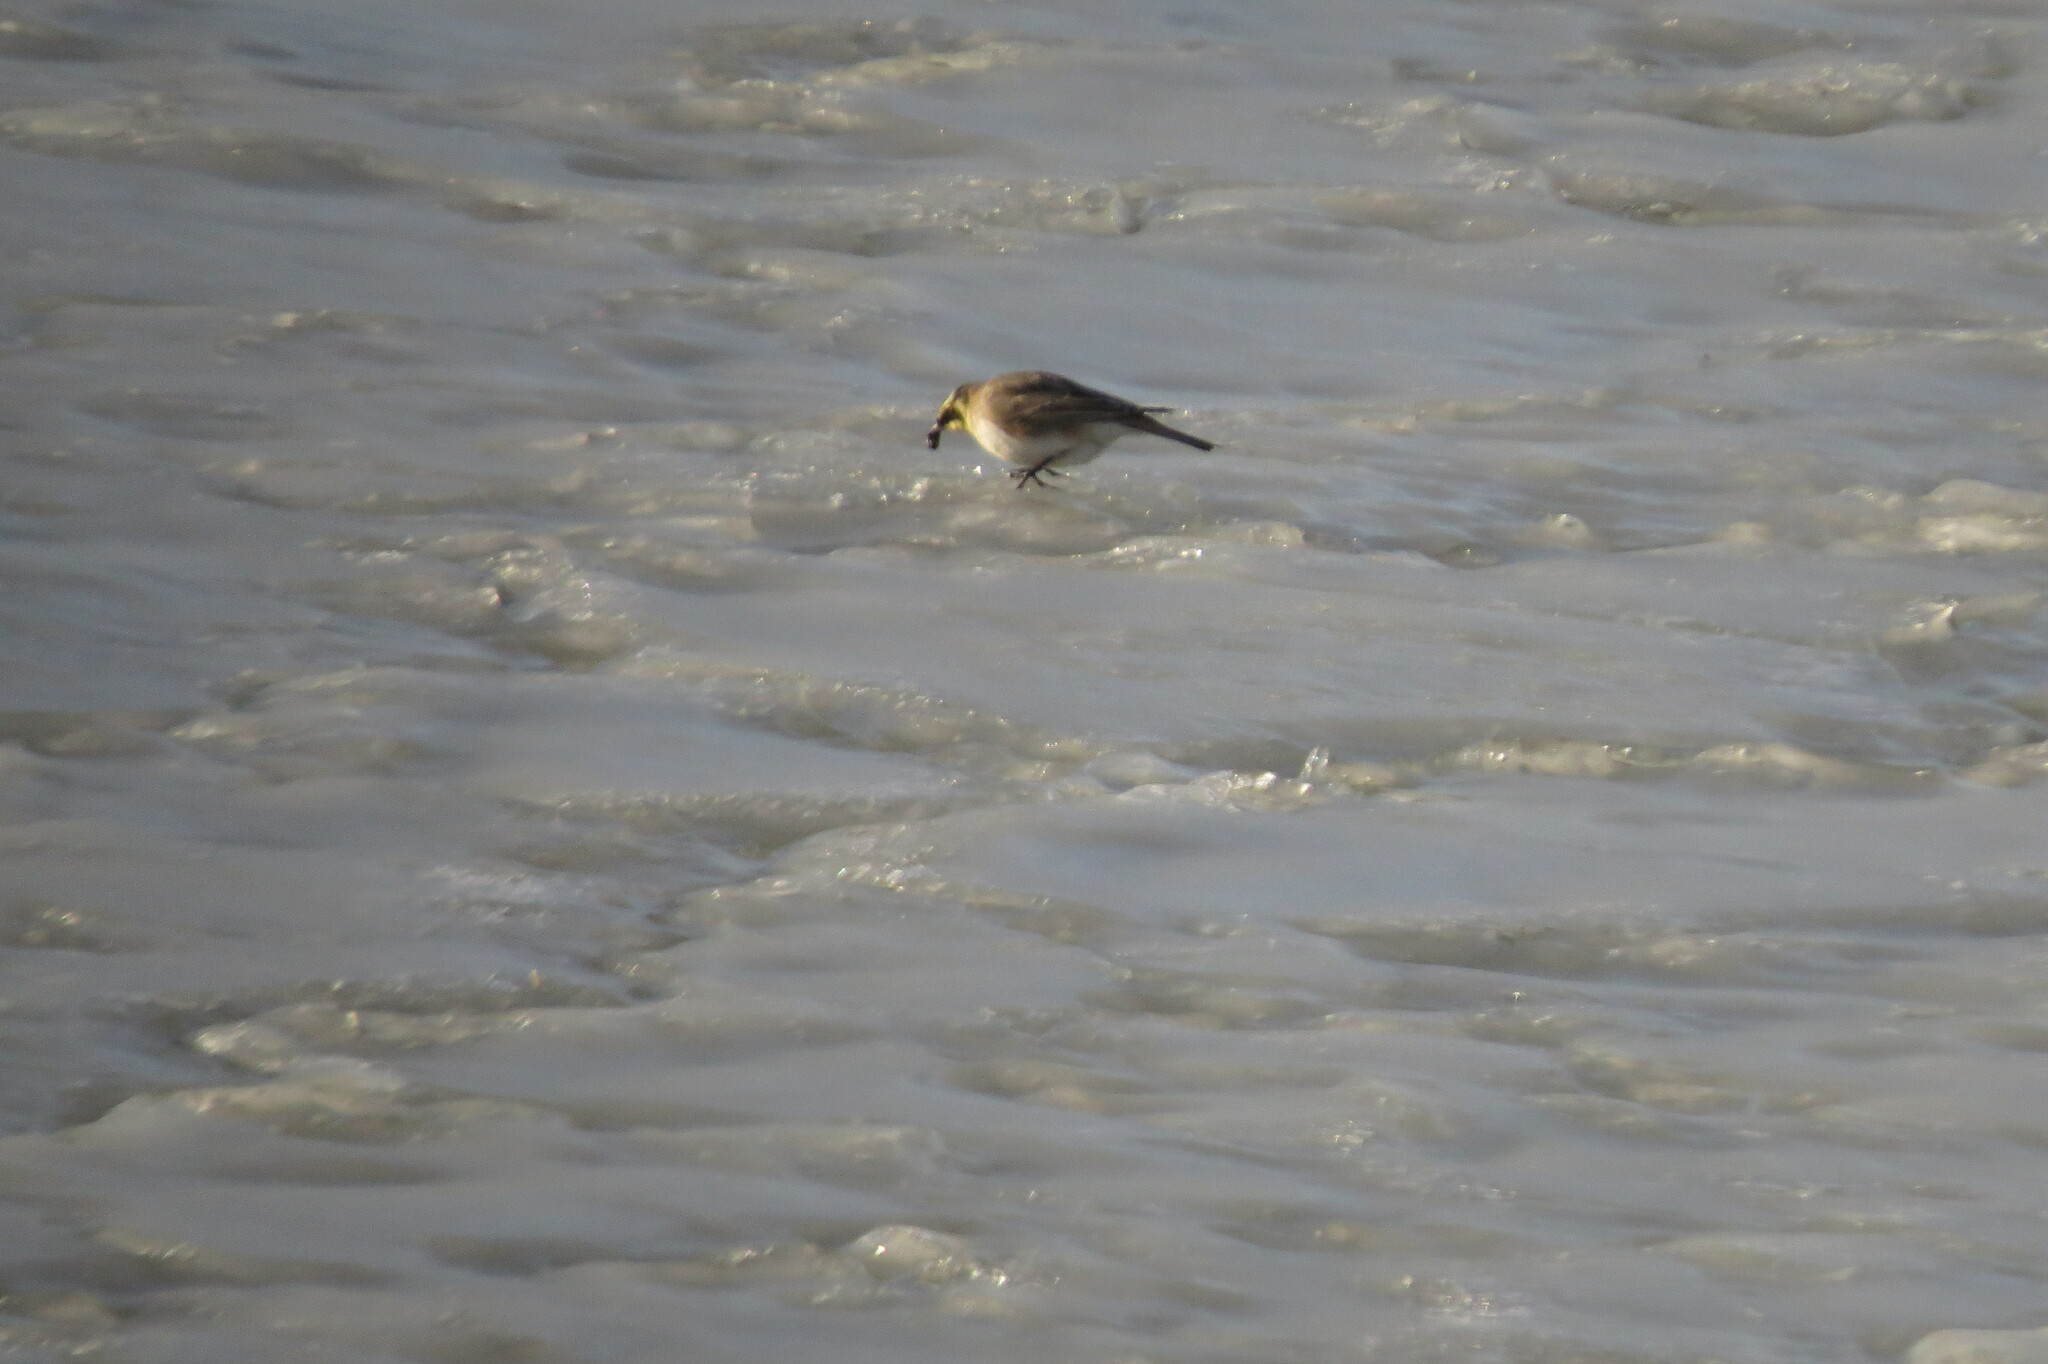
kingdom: Animalia
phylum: Chordata
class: Aves
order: Passeriformes
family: Alaudidae
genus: Eremophila
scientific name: Eremophila alpestris
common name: Horned lark
